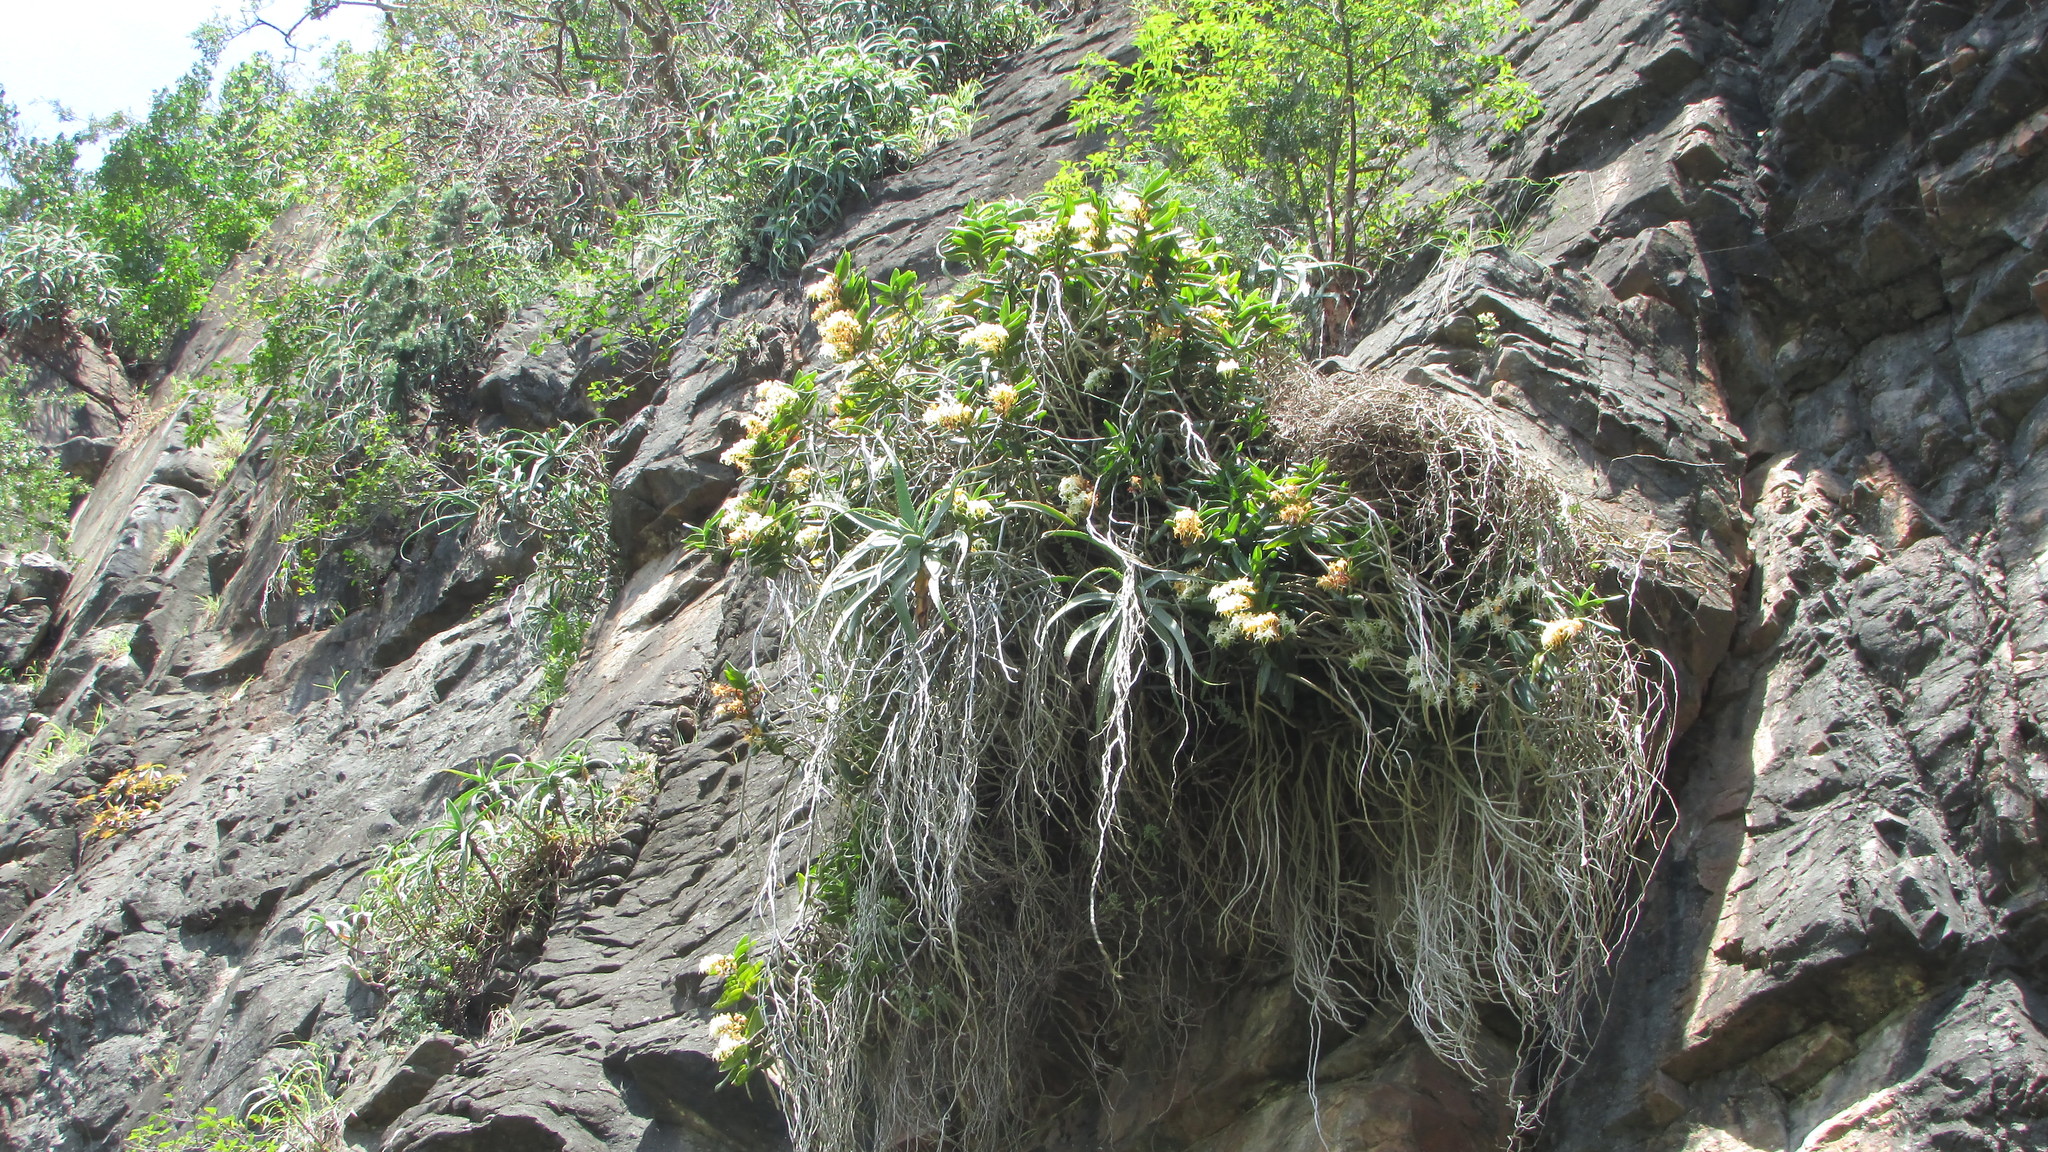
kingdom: Plantae
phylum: Tracheophyta
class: Liliopsida
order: Asparagales
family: Orchidaceae
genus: Cyrtorchis
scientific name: Cyrtorchis arcuata
